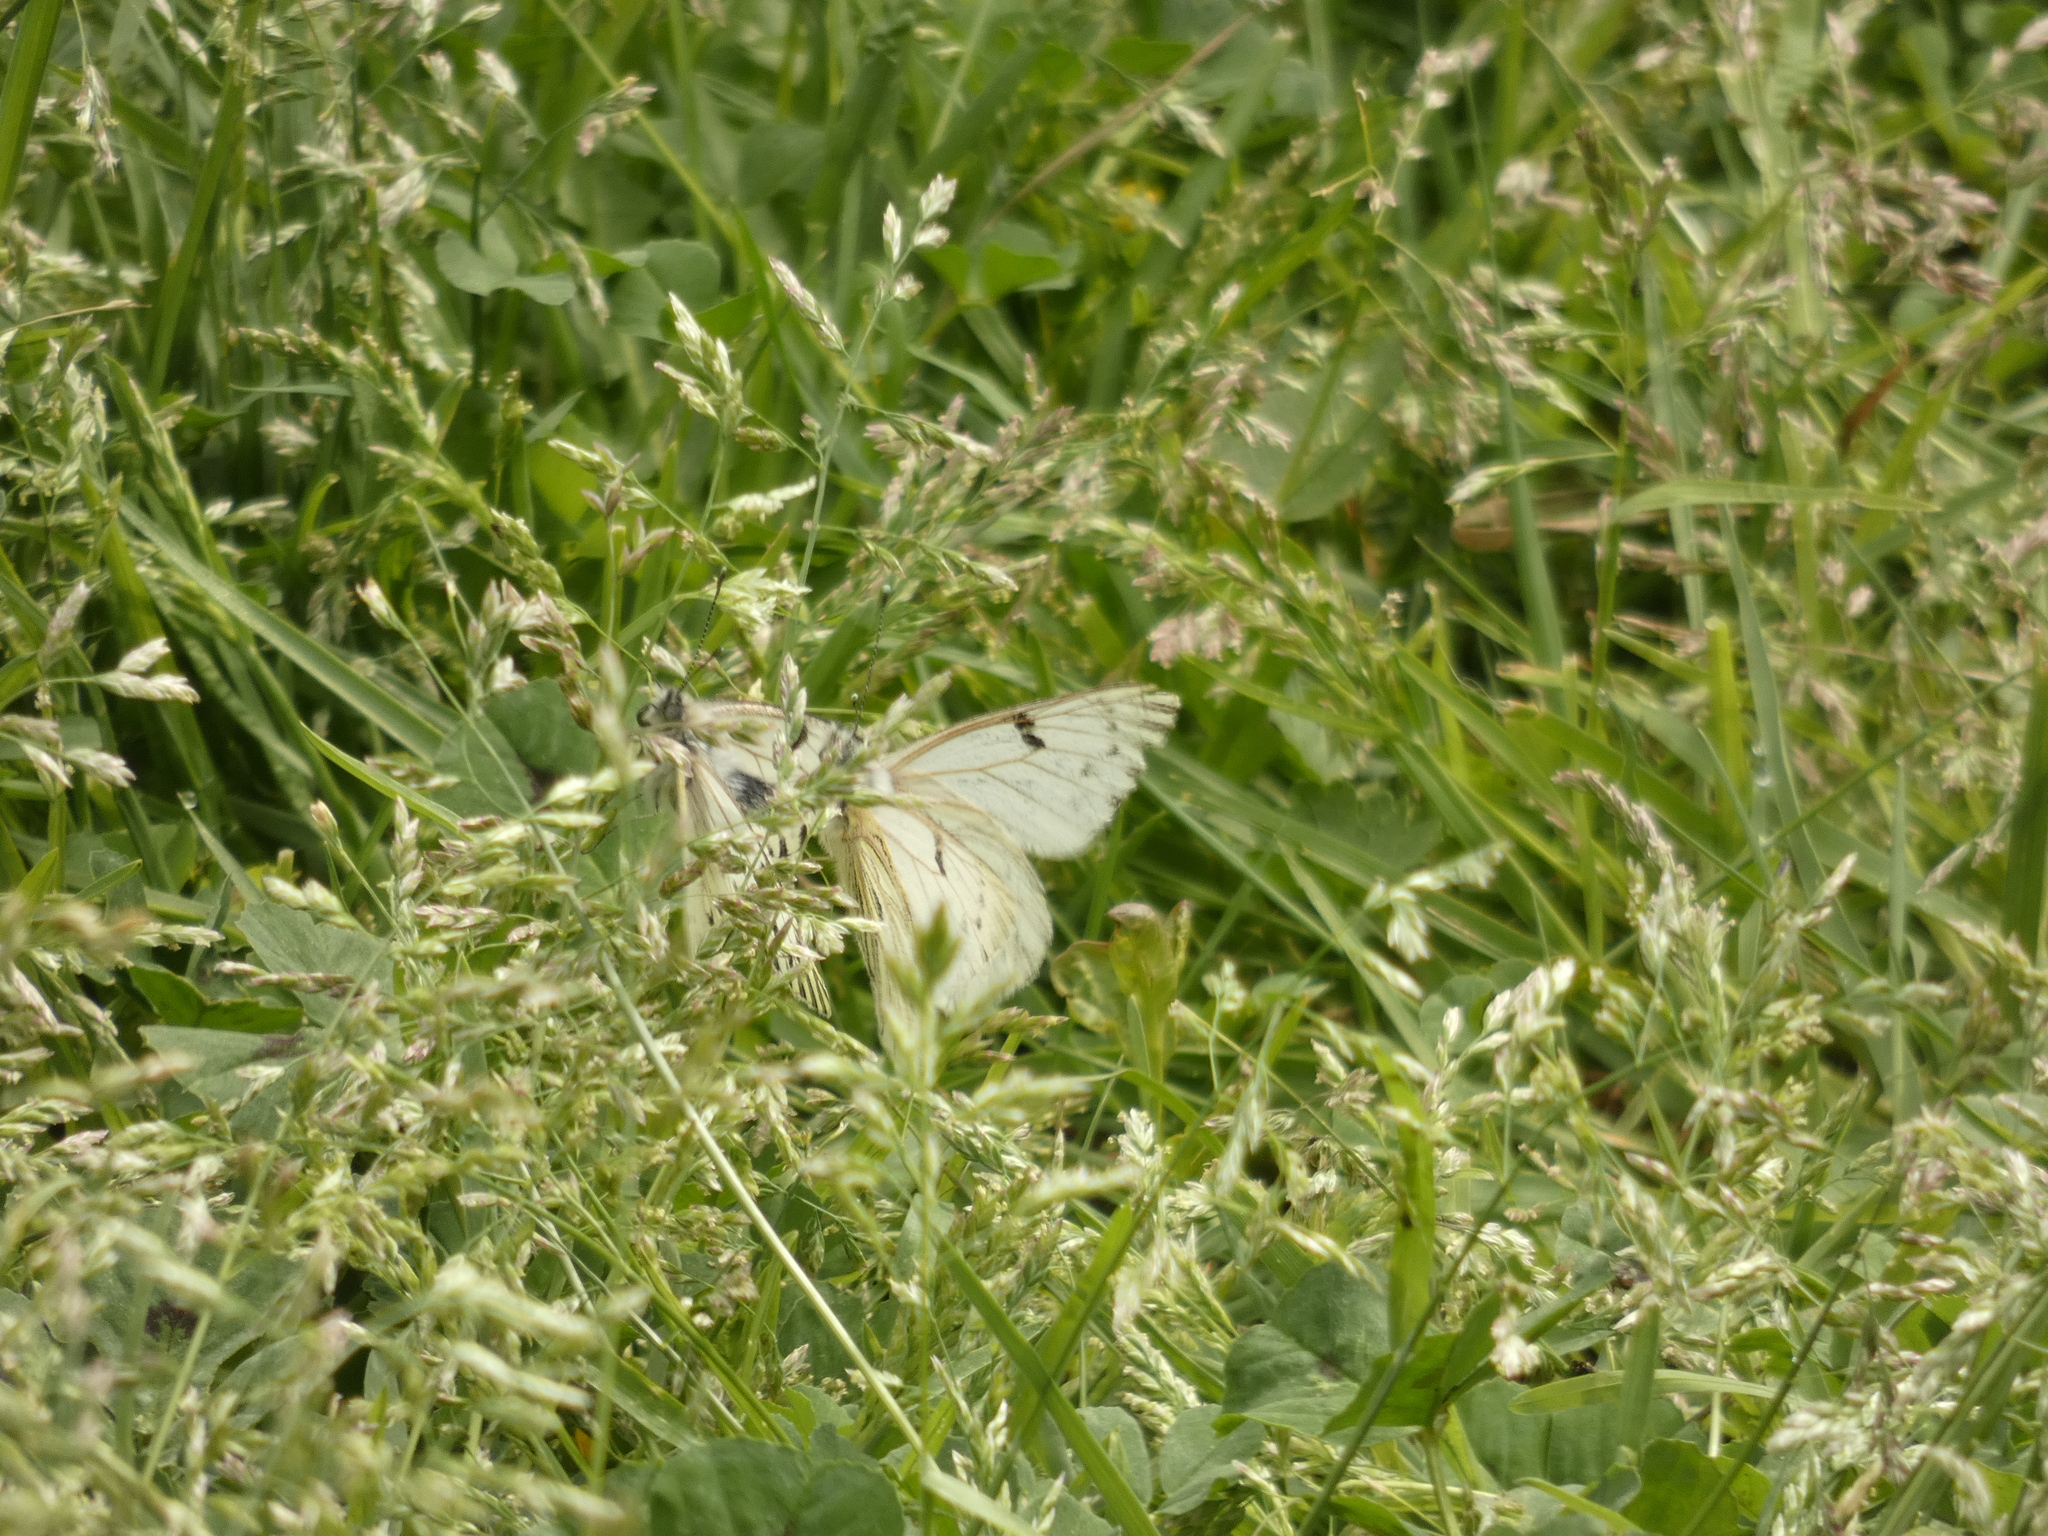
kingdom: Animalia
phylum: Arthropoda
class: Insecta
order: Lepidoptera
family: Pieridae
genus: Tatochila
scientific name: Tatochila mercedis
